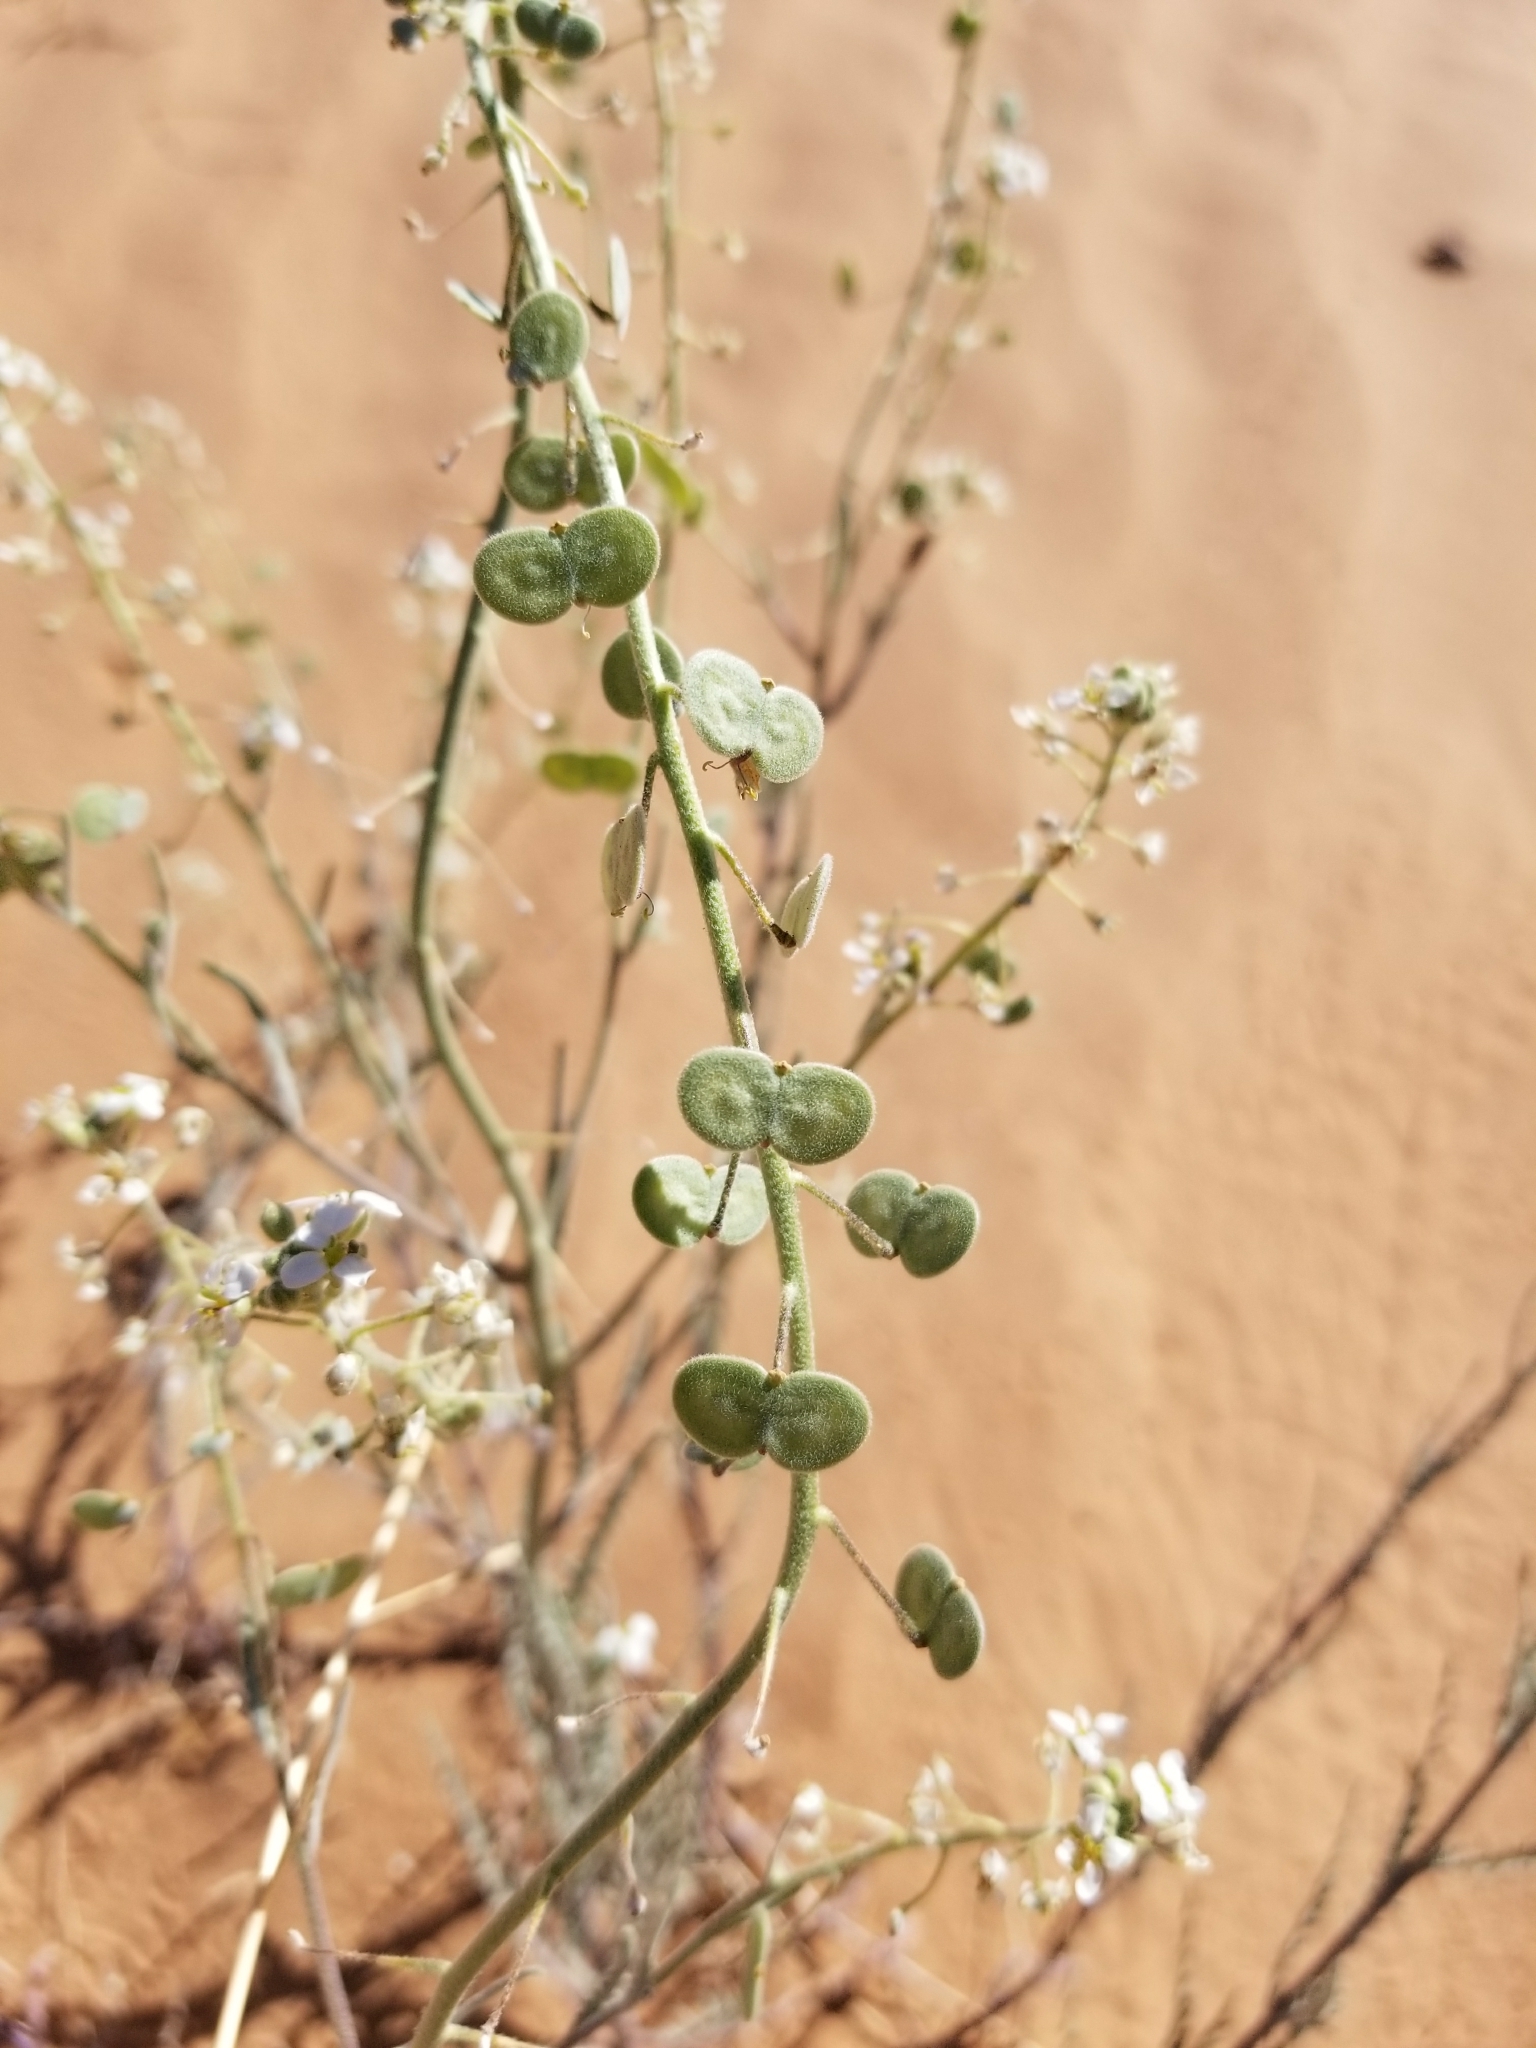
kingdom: Plantae
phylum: Tracheophyta
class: Magnoliopsida
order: Brassicales
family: Brassicaceae
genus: Dimorphocarpa
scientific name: Dimorphocarpa pinnatifida
